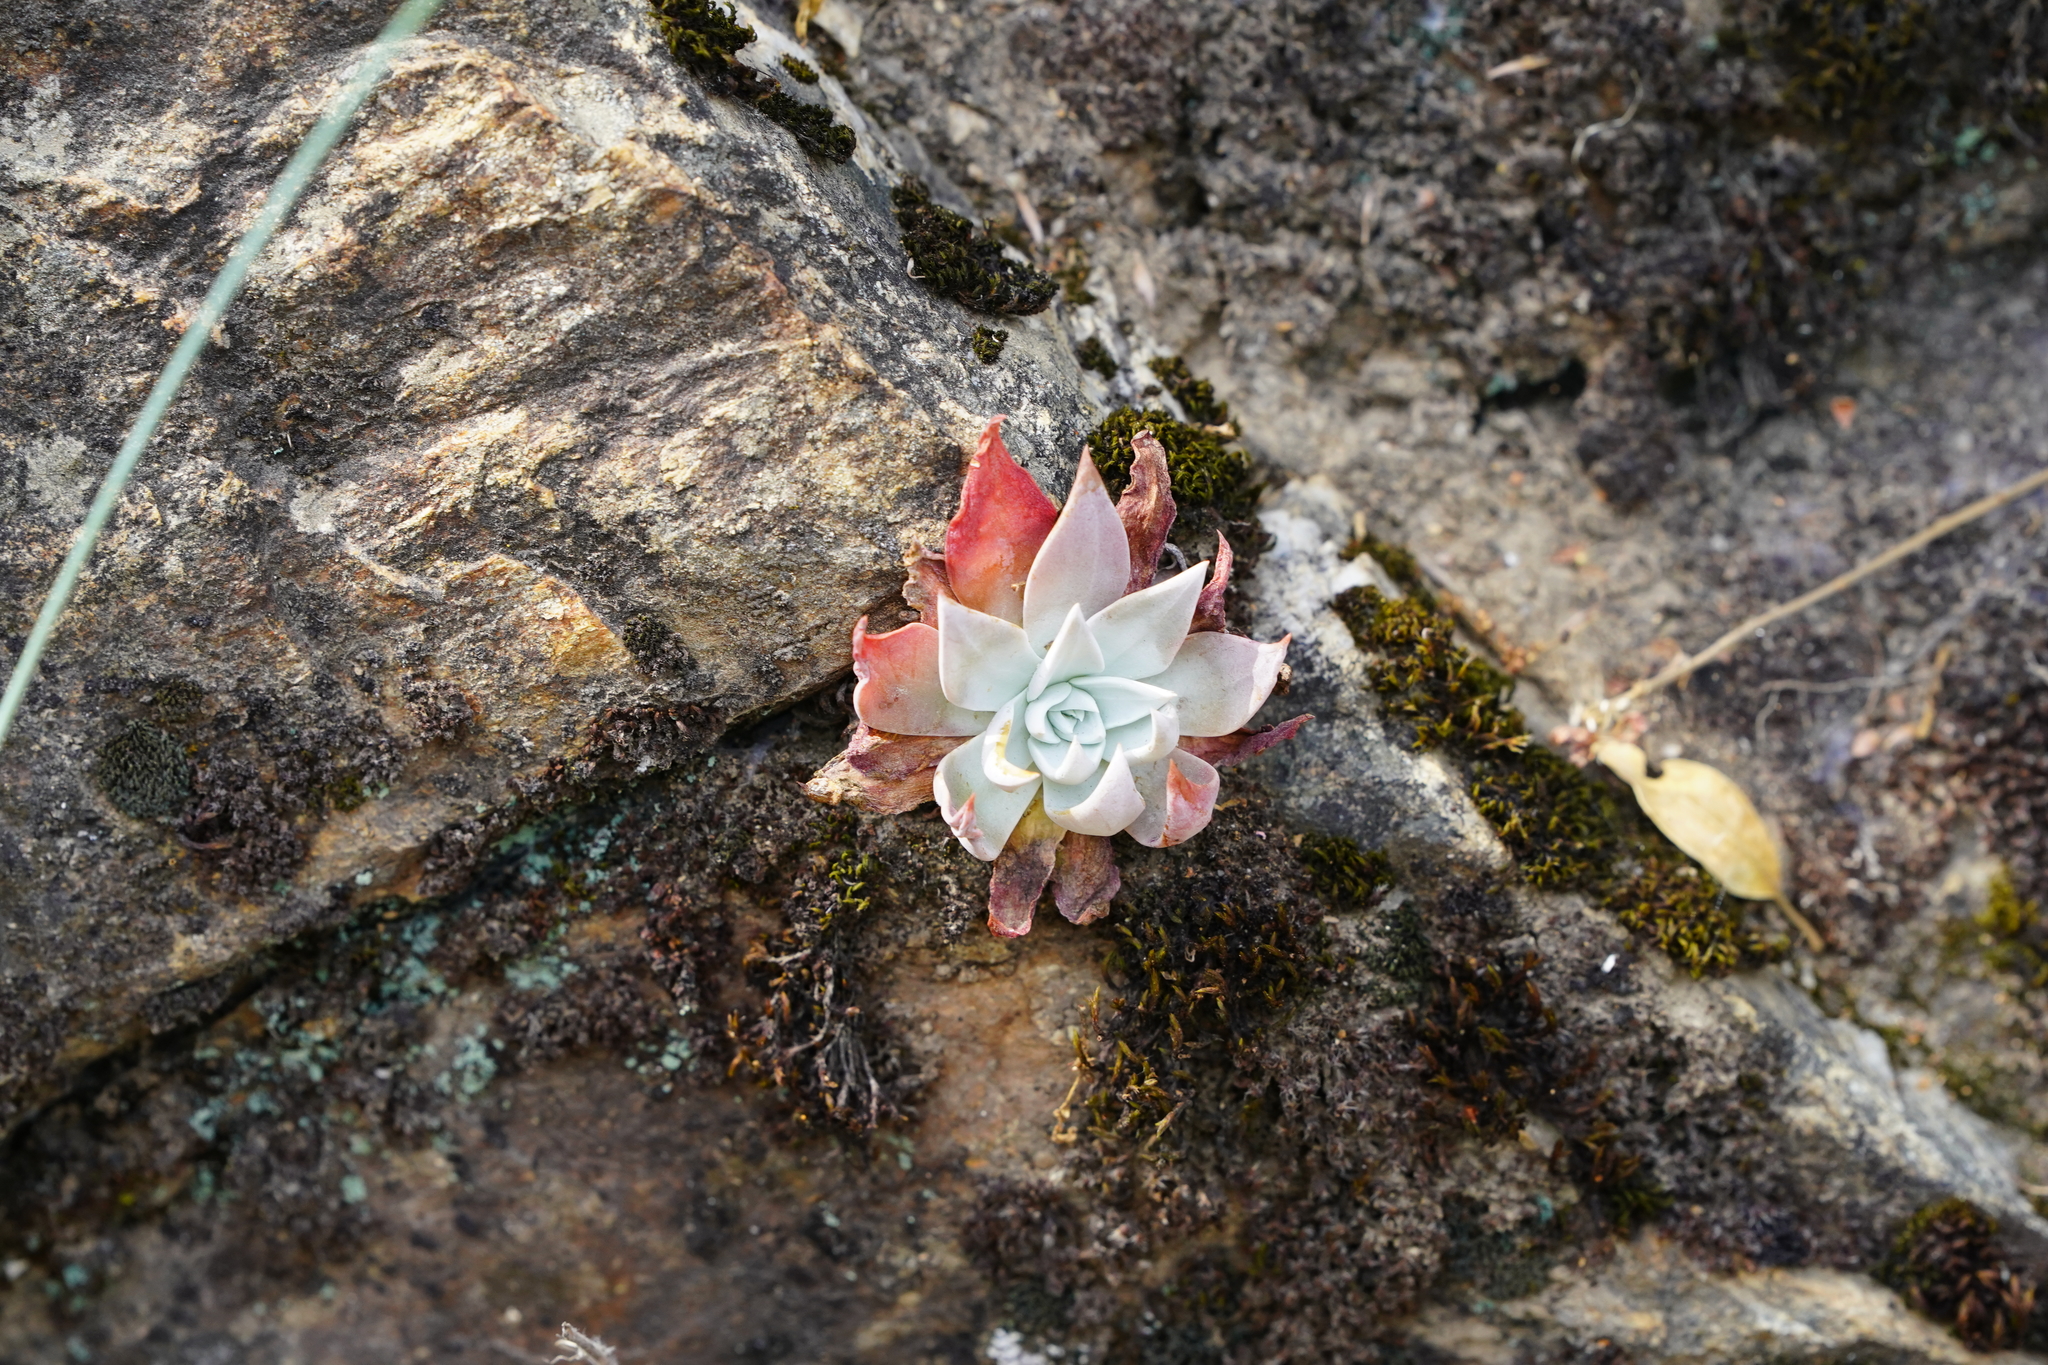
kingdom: Plantae
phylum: Tracheophyta
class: Magnoliopsida
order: Saxifragales
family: Crassulaceae
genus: Dudleya
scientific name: Dudleya cymosa
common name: Canyon dudleya
